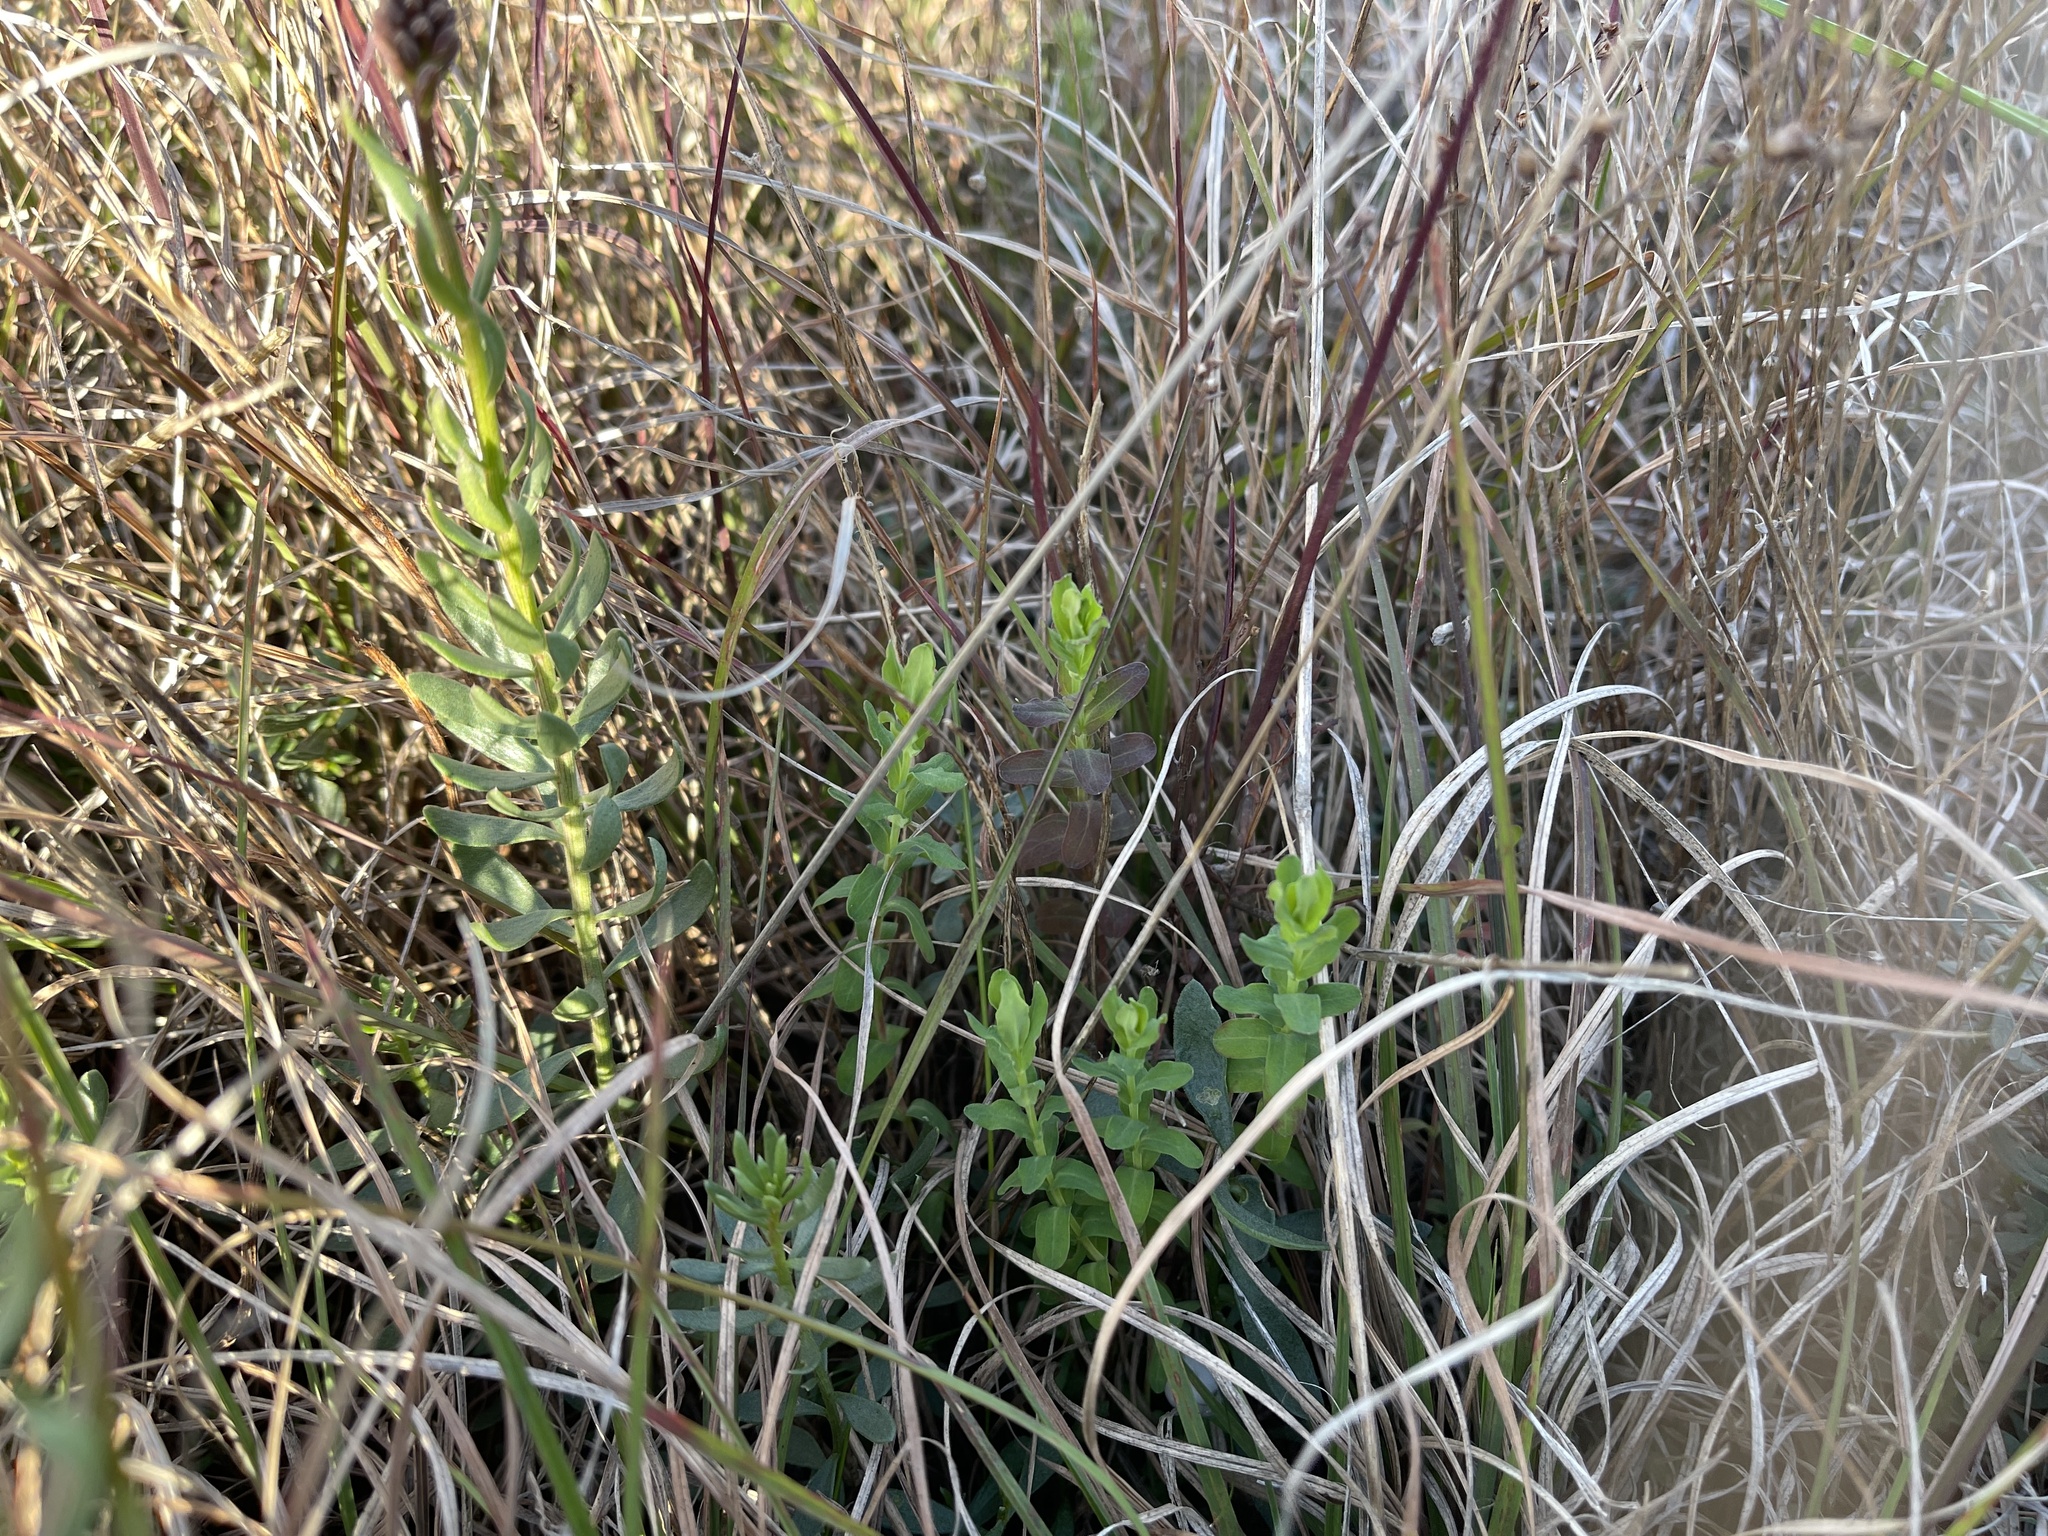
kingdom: Plantae
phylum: Tracheophyta
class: Magnoliopsida
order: Malpighiales
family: Hypericaceae
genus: Hypericum
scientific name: Hypericum gramineum
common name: Grassy st. johnswort
